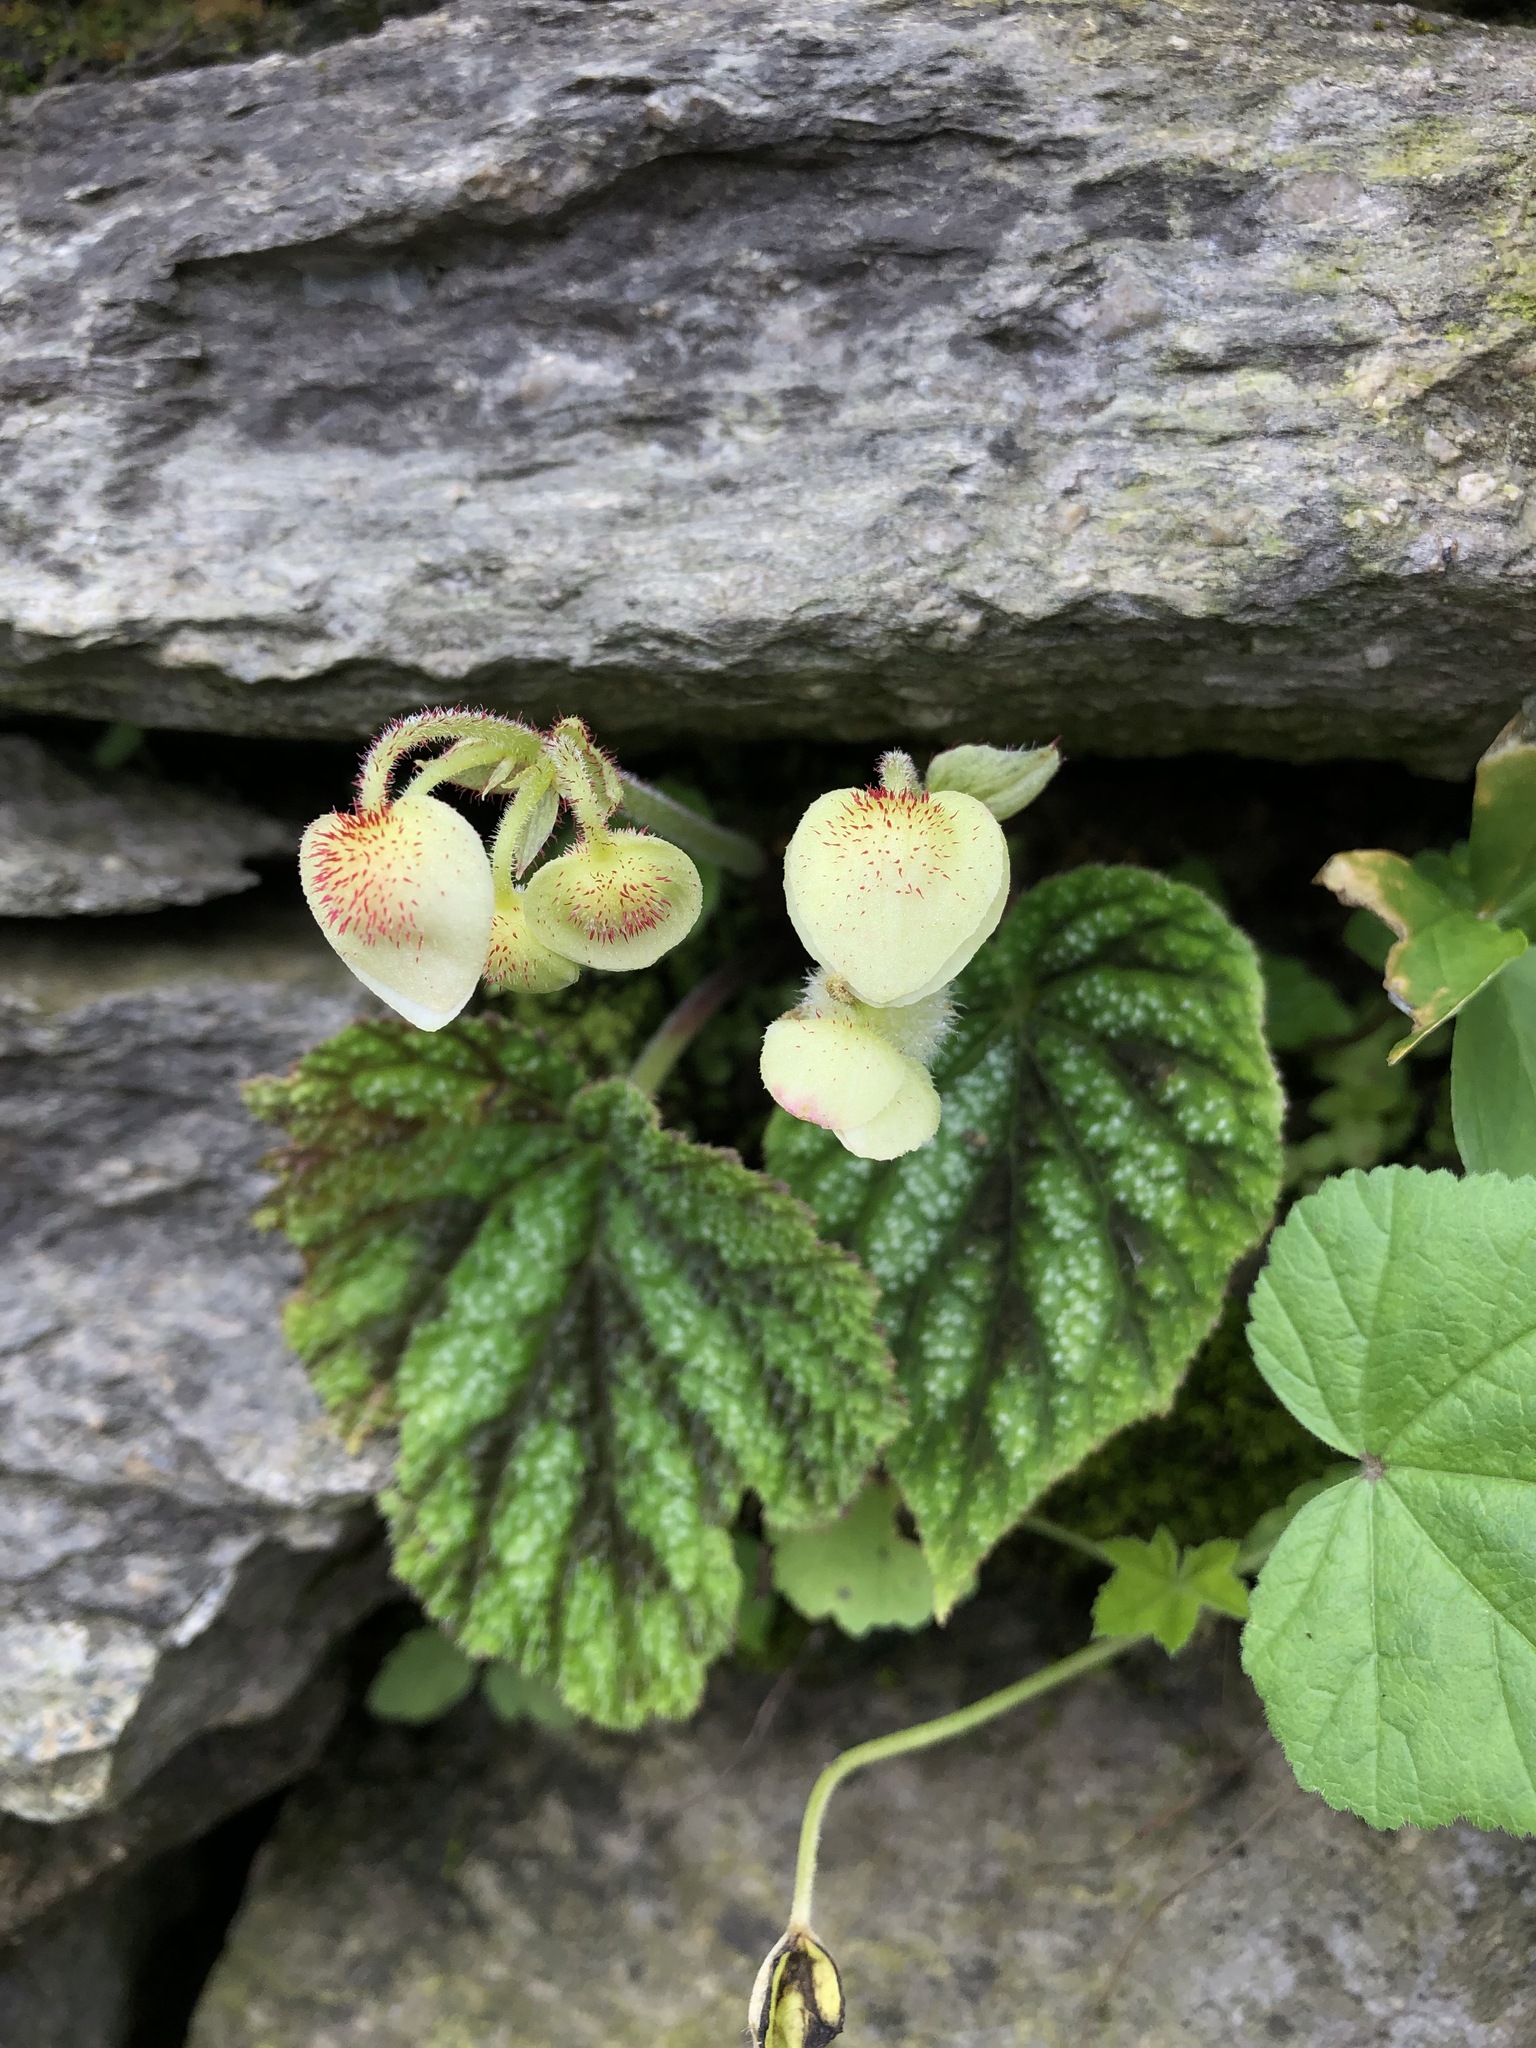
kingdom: Plantae
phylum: Tracheophyta
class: Magnoliopsida
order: Cucurbitales
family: Begoniaceae
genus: Begonia
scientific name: Begonia picta
